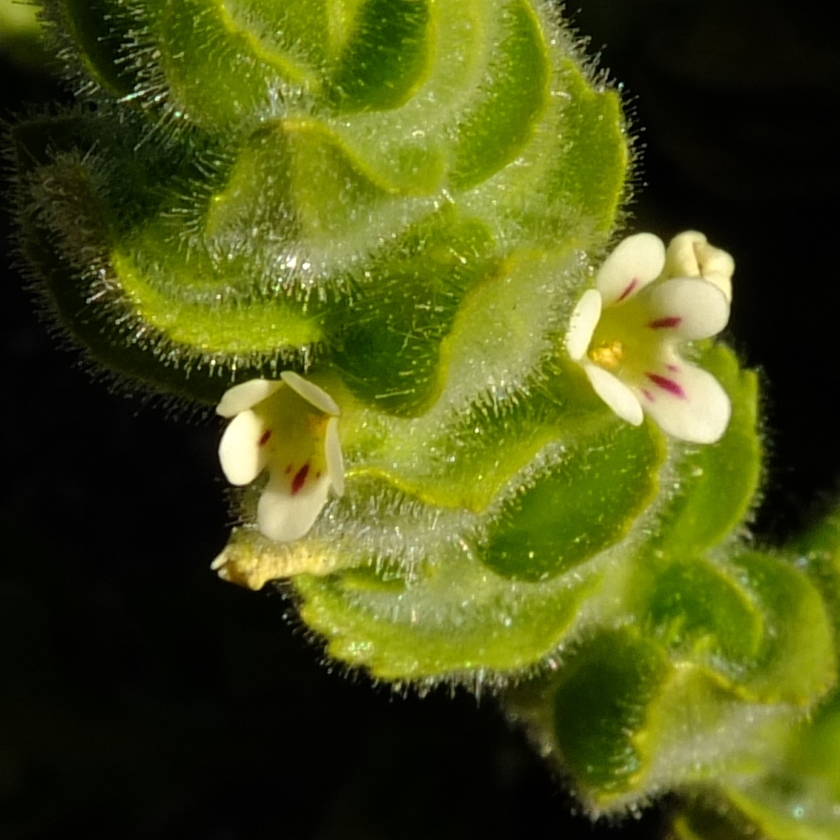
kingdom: Plantae
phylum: Tracheophyta
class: Magnoliopsida
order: Lamiales
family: Scrophulariaceae
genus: Jamesbrittenia
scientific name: Jamesbrittenia amplexicaulis
